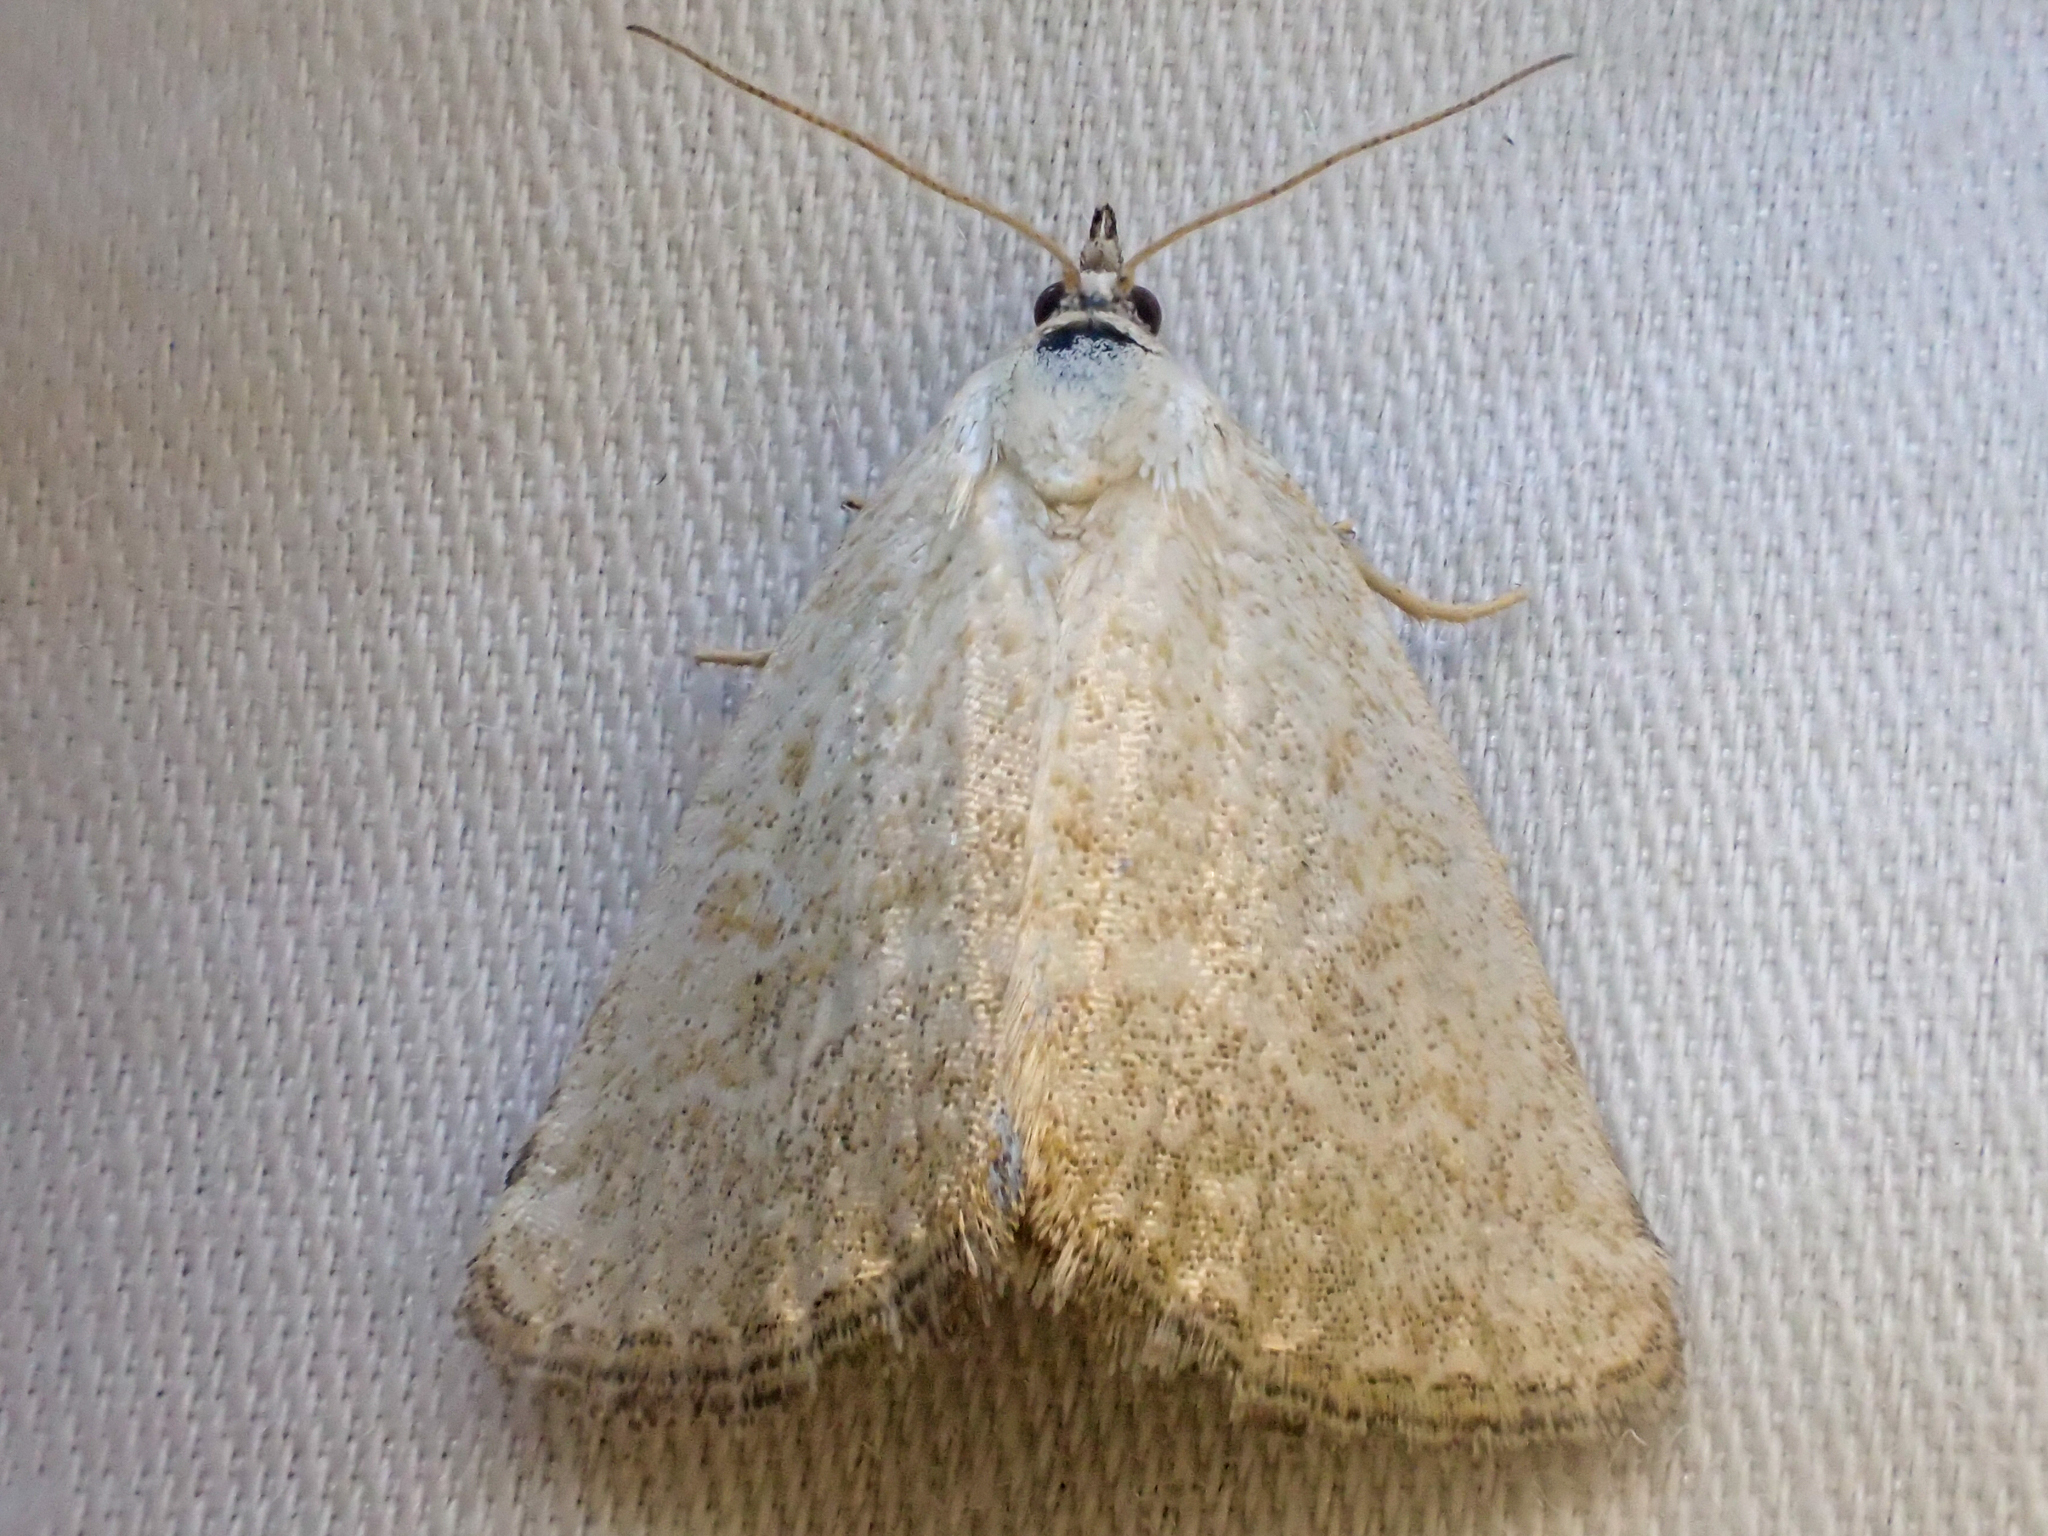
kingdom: Animalia
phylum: Arthropoda
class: Insecta
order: Lepidoptera
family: Noctuidae
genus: Protodeltote
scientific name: Protodeltote albidula
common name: Pale glyph
